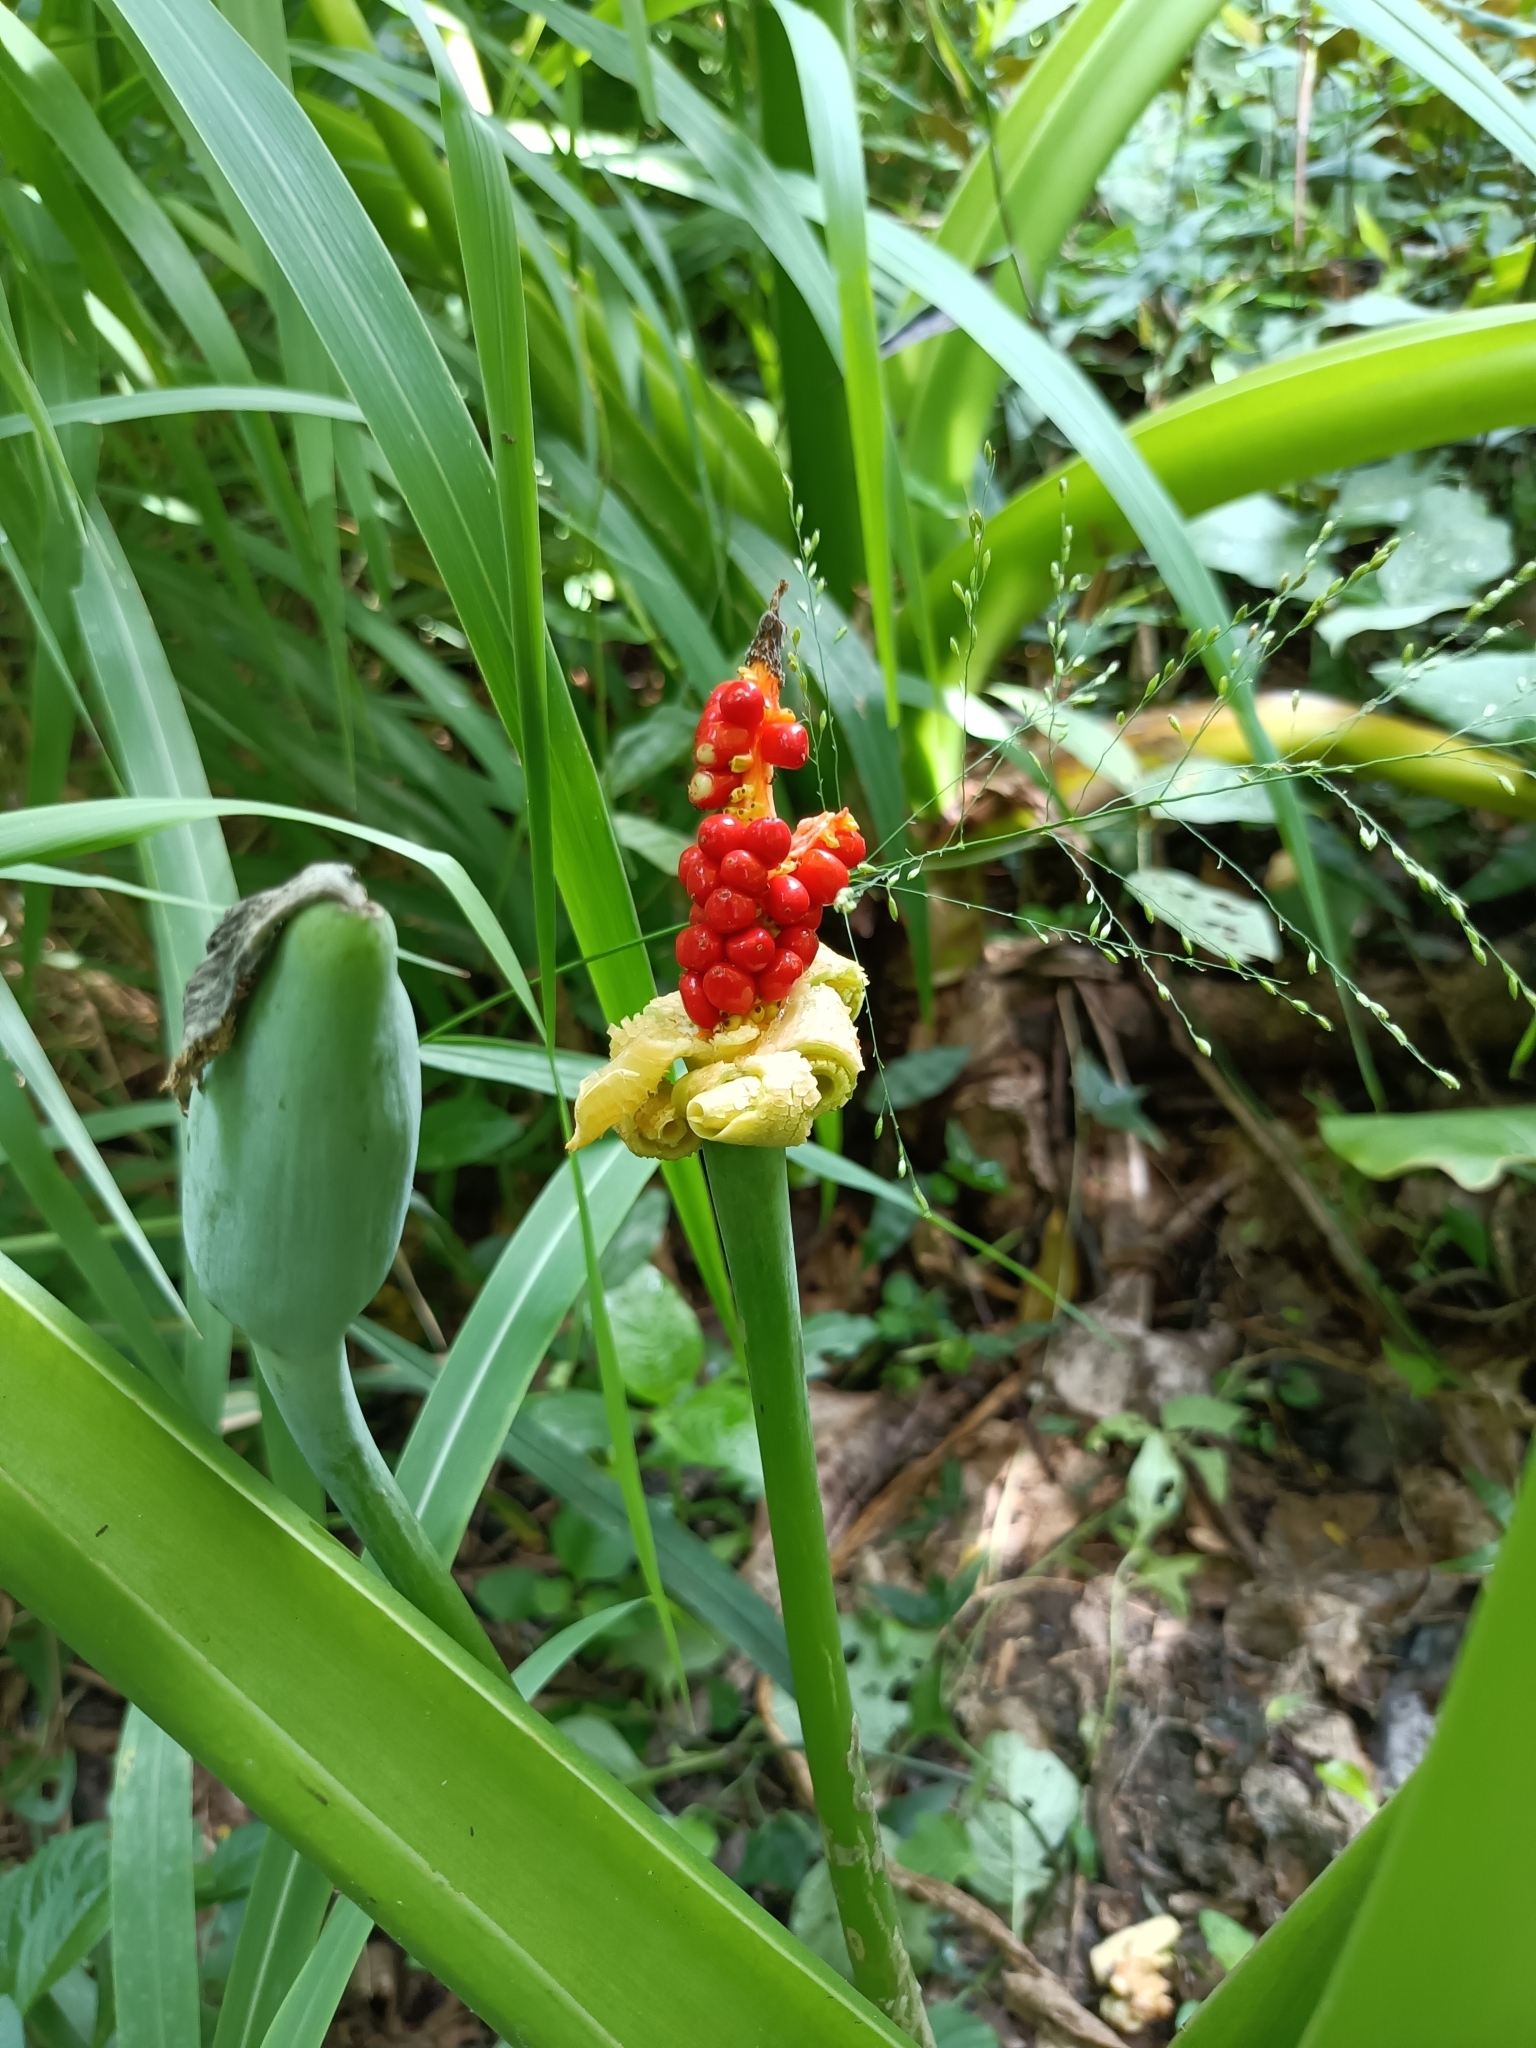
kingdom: Plantae
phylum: Tracheophyta
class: Liliopsida
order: Alismatales
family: Araceae
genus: Alocasia
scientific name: Alocasia odora
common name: Asian taro
